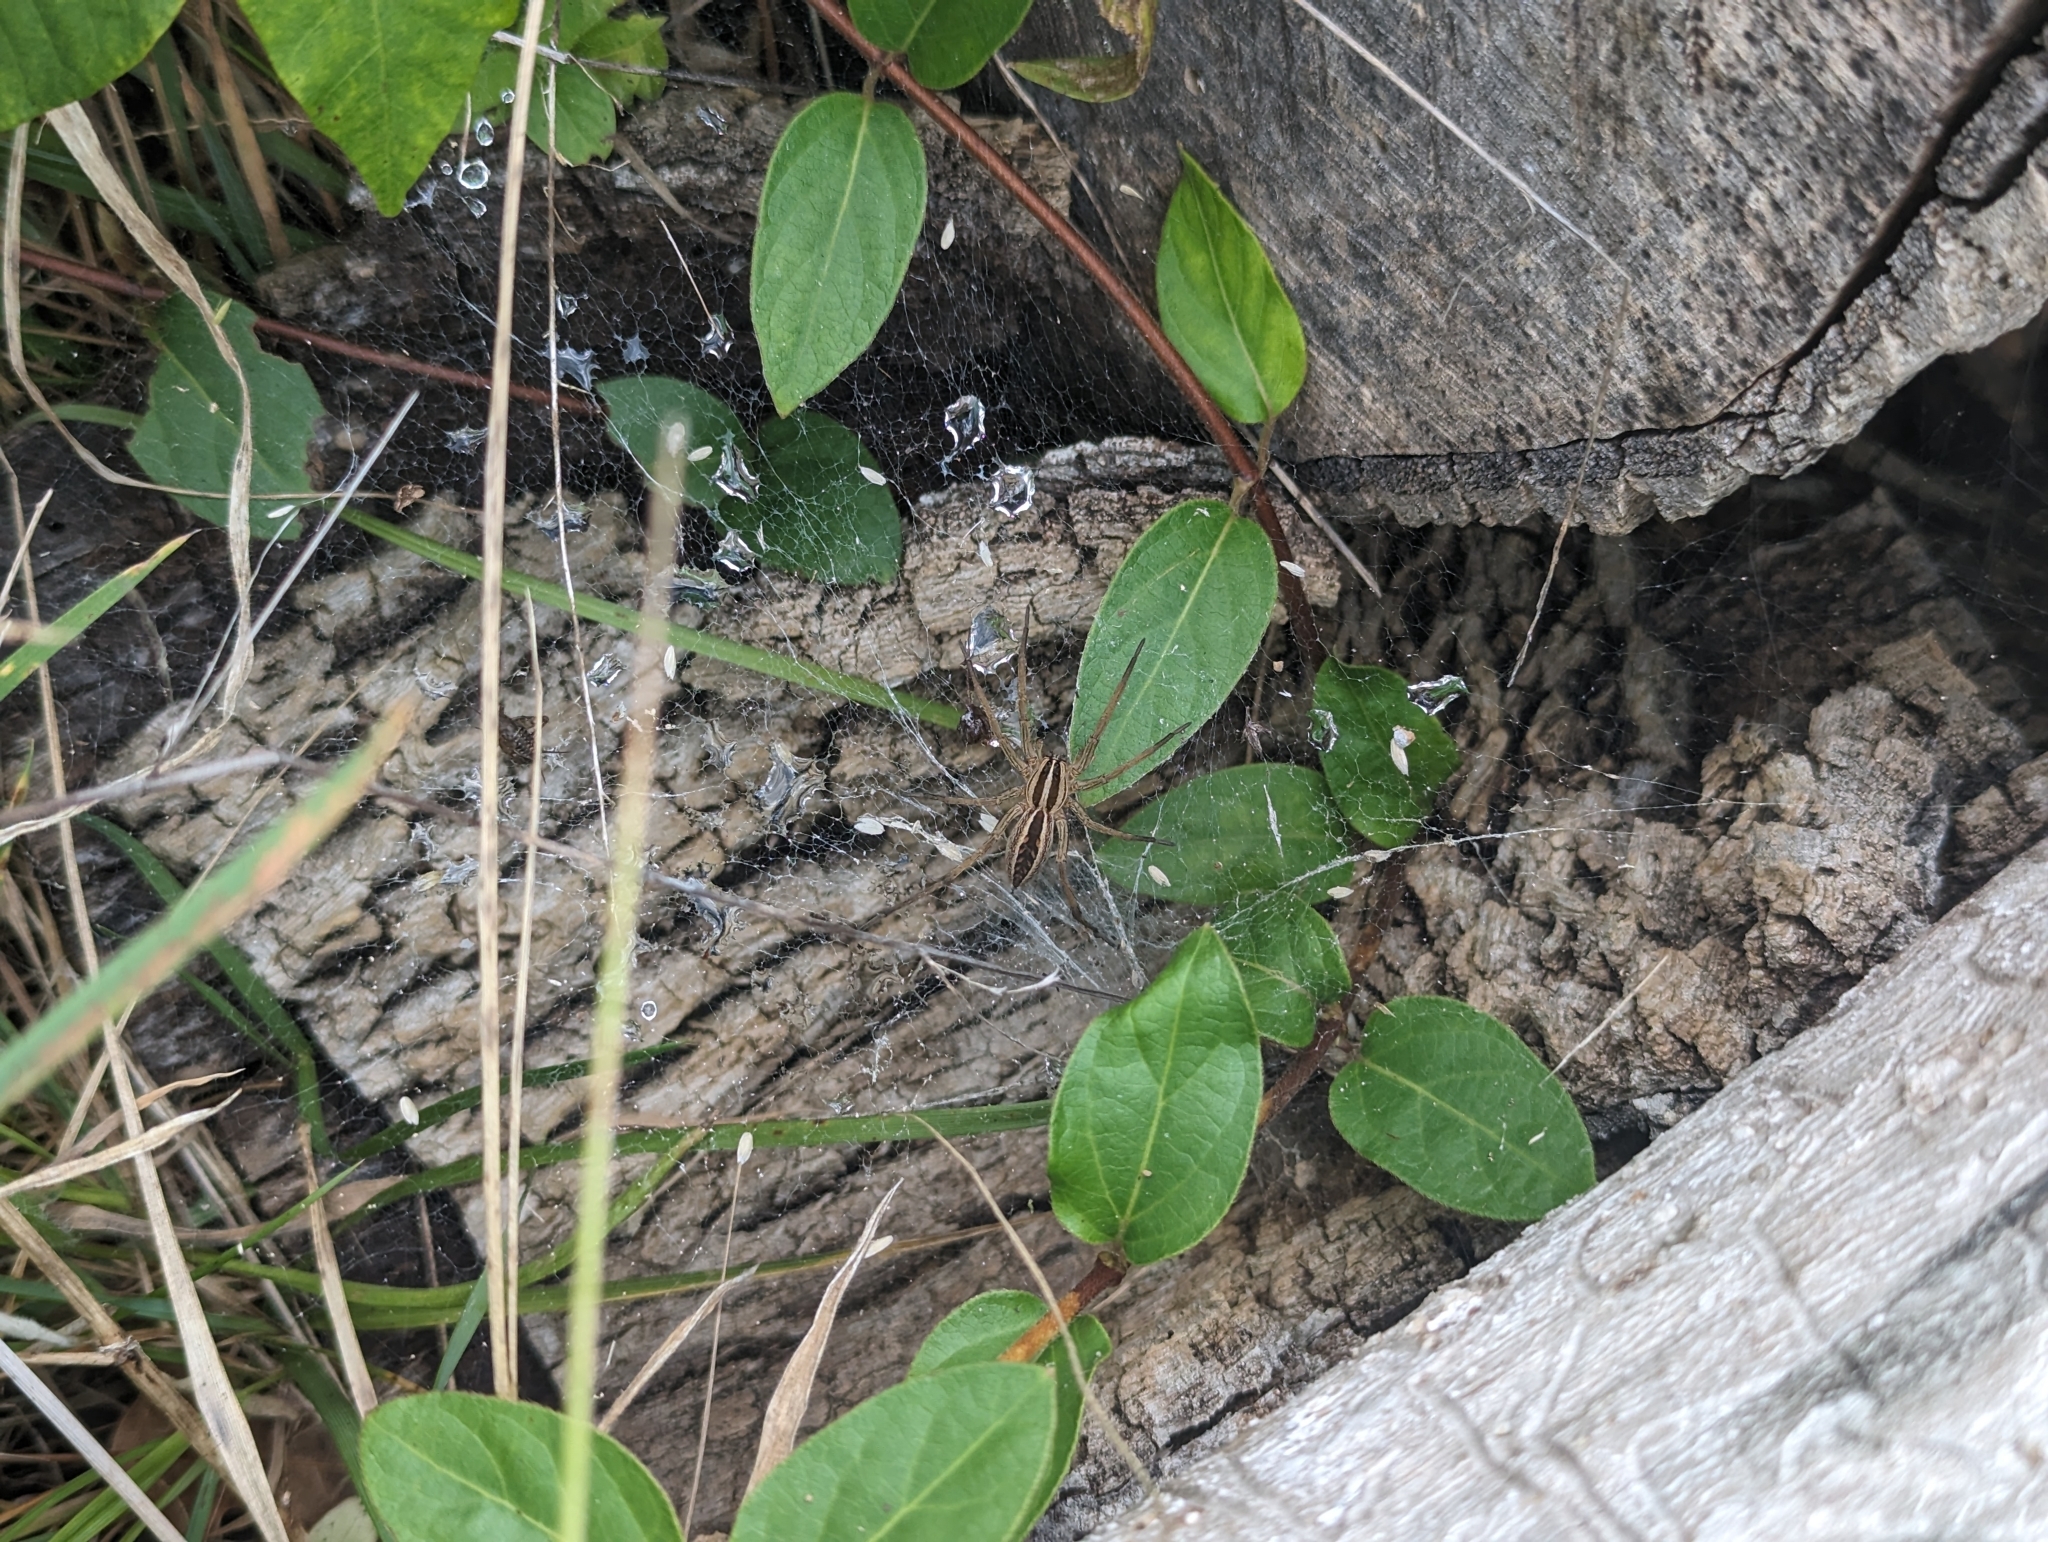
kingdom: Animalia
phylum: Arthropoda
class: Arachnida
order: Araneae
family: Lycosidae
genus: Rabidosa
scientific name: Rabidosa rabida
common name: Rabid wolf spider
